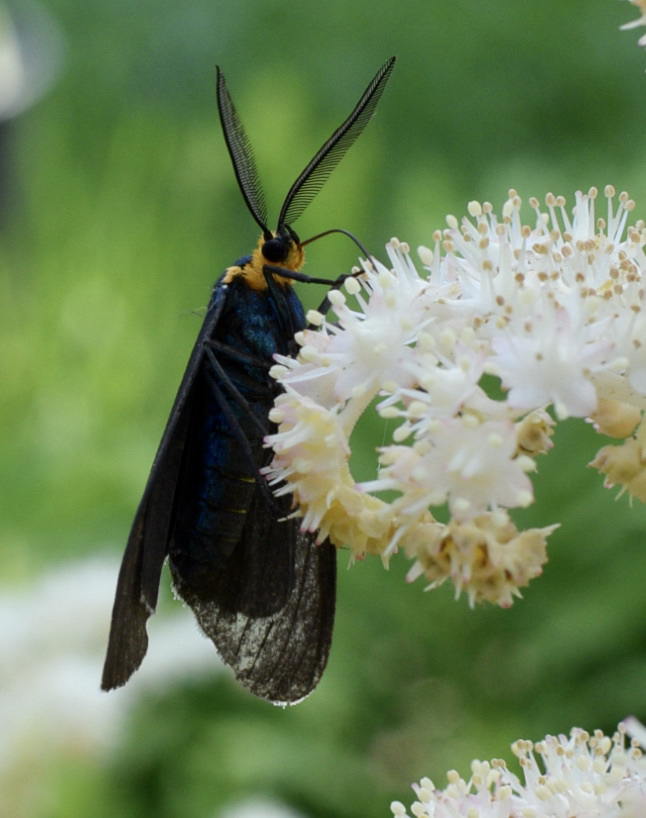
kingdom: Animalia
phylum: Arthropoda
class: Insecta
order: Lepidoptera
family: Erebidae
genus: Ctenucha
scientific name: Ctenucha virginica
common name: Virginia ctenucha moth
